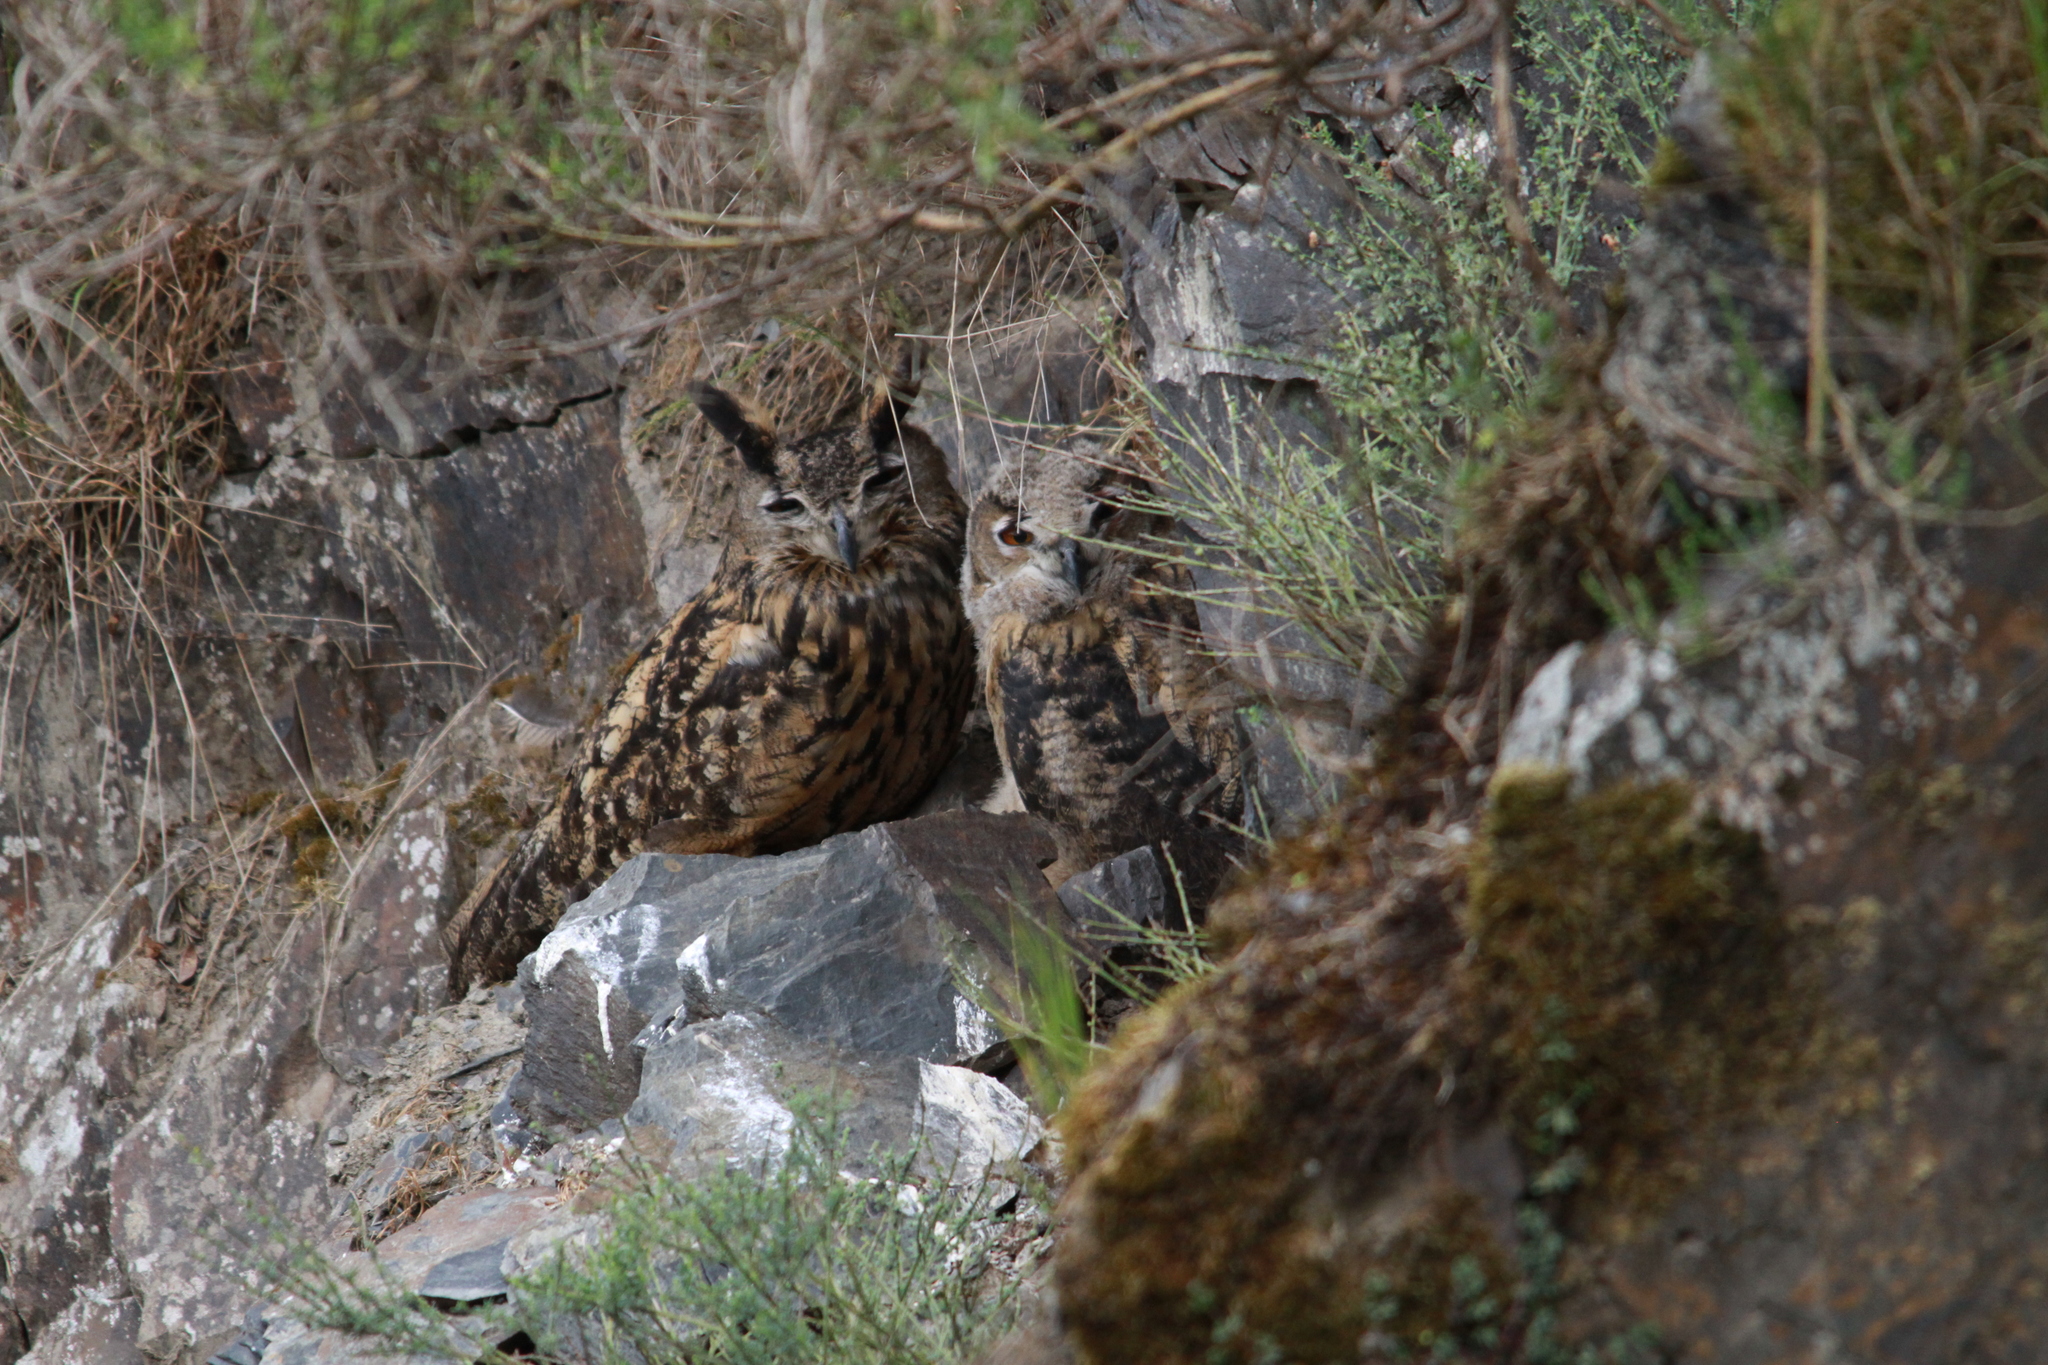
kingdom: Animalia
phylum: Chordata
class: Aves
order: Strigiformes
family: Strigidae
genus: Bubo
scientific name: Bubo bubo
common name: Eurasian eagle-owl
